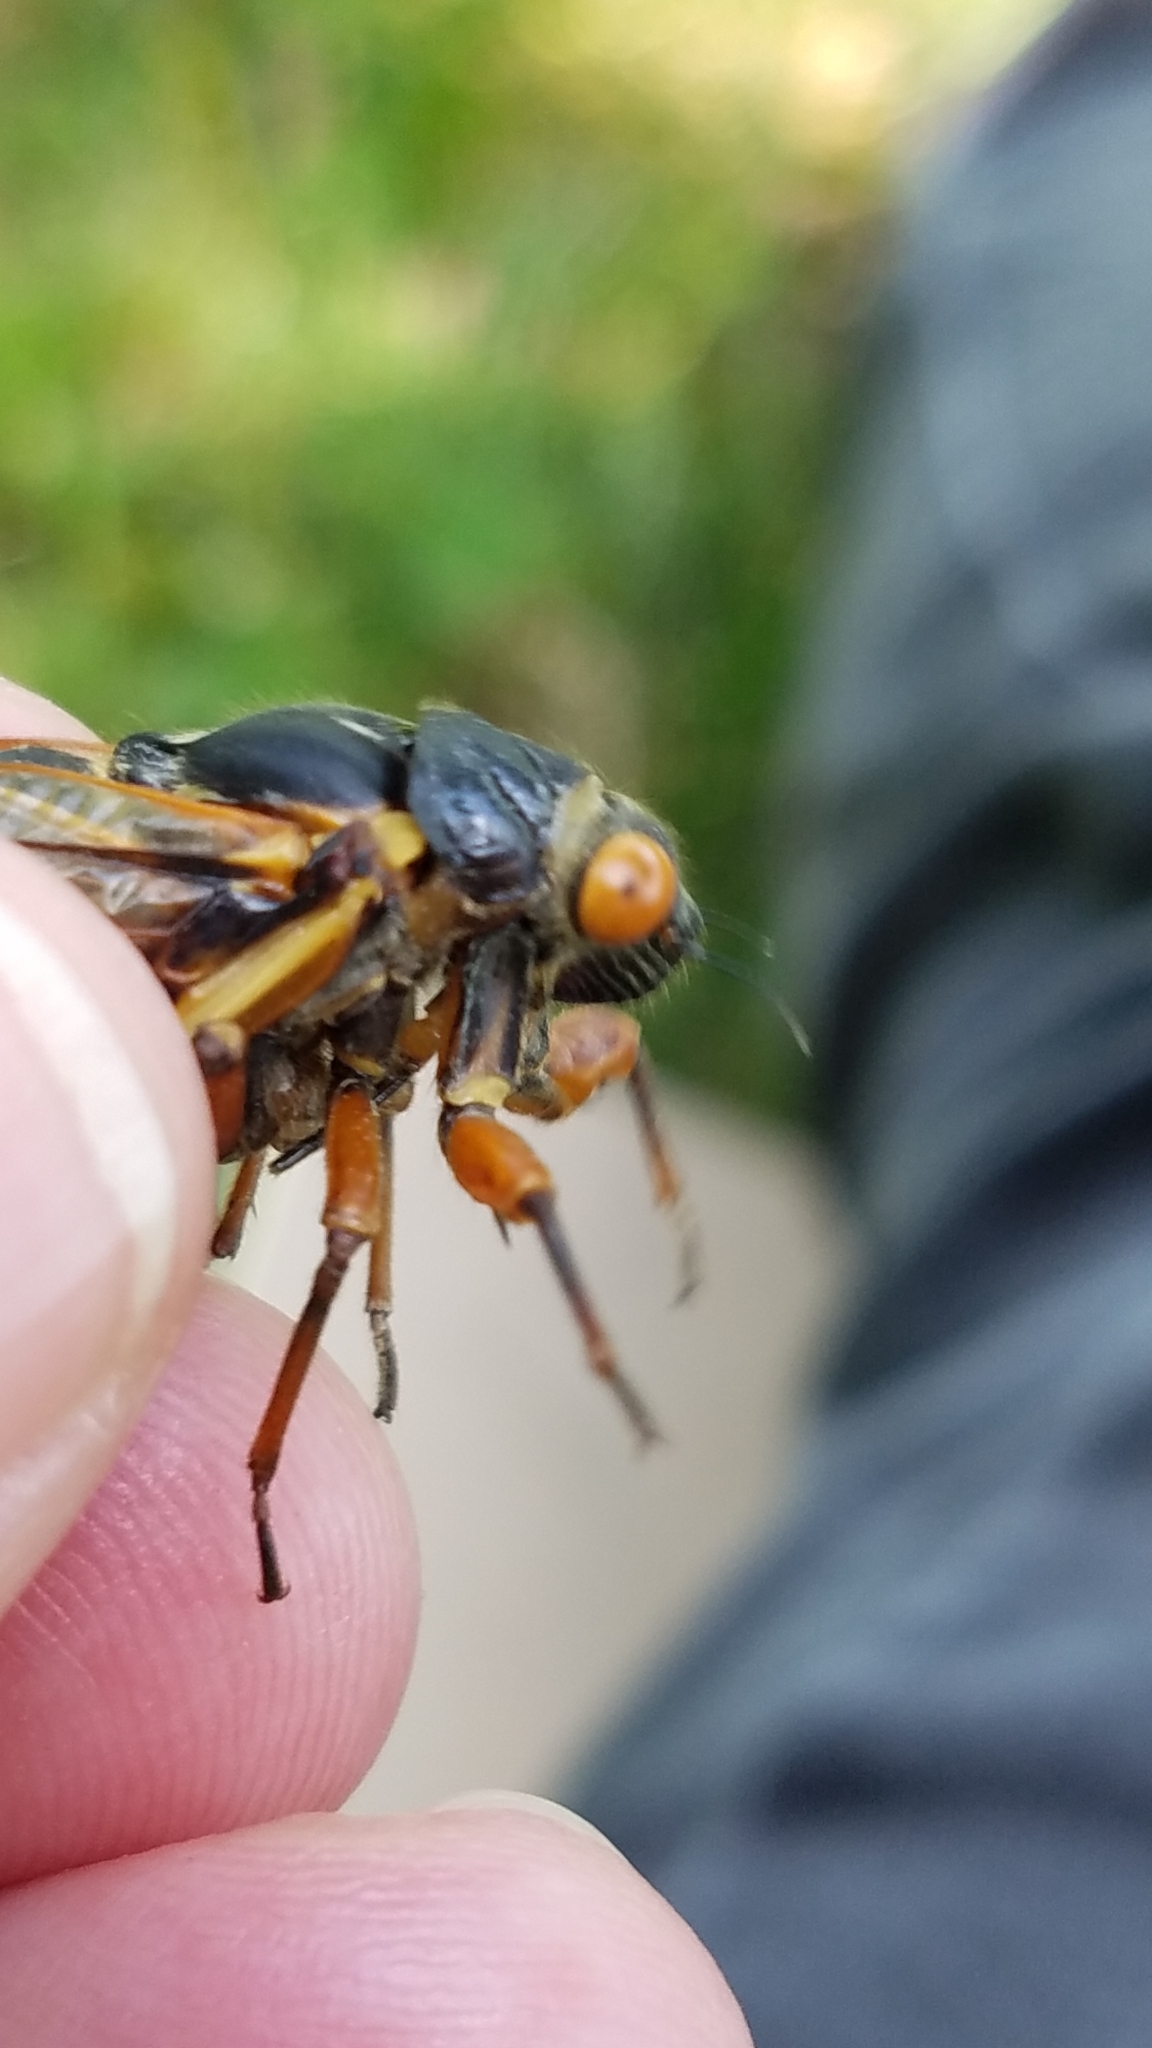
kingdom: Animalia
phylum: Arthropoda
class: Insecta
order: Hemiptera
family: Cicadidae
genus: Magicicada
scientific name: Magicicada septendecim
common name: Periodical cicada
